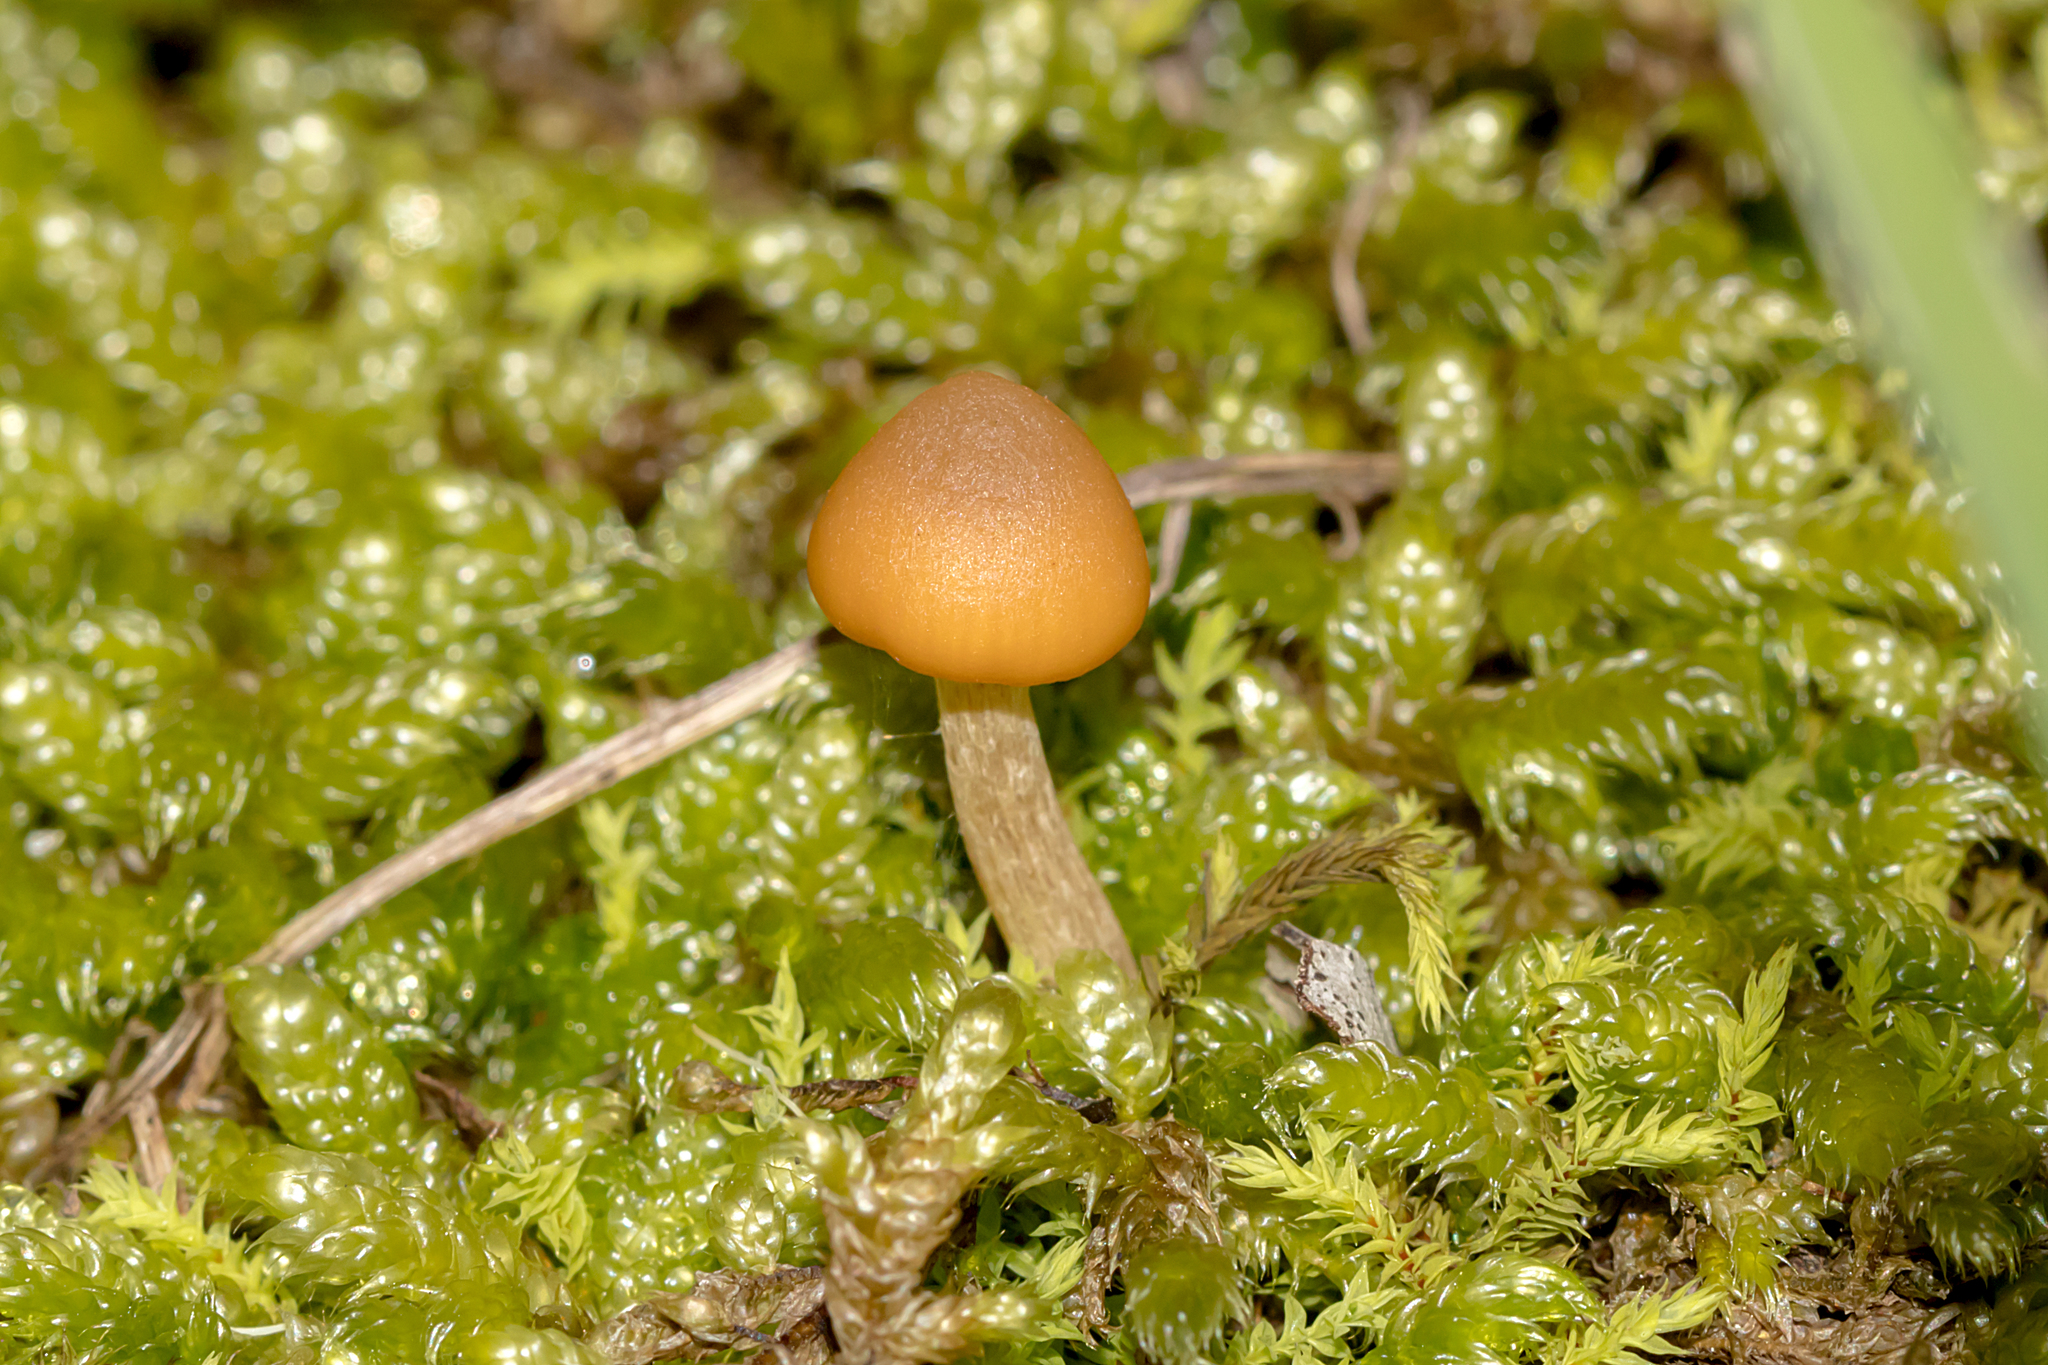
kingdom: Fungi
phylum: Basidiomycota
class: Agaricomycetes
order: Agaricales
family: Hymenogastraceae
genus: Galerina
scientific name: Galerina hypnorum
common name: Moss bell
